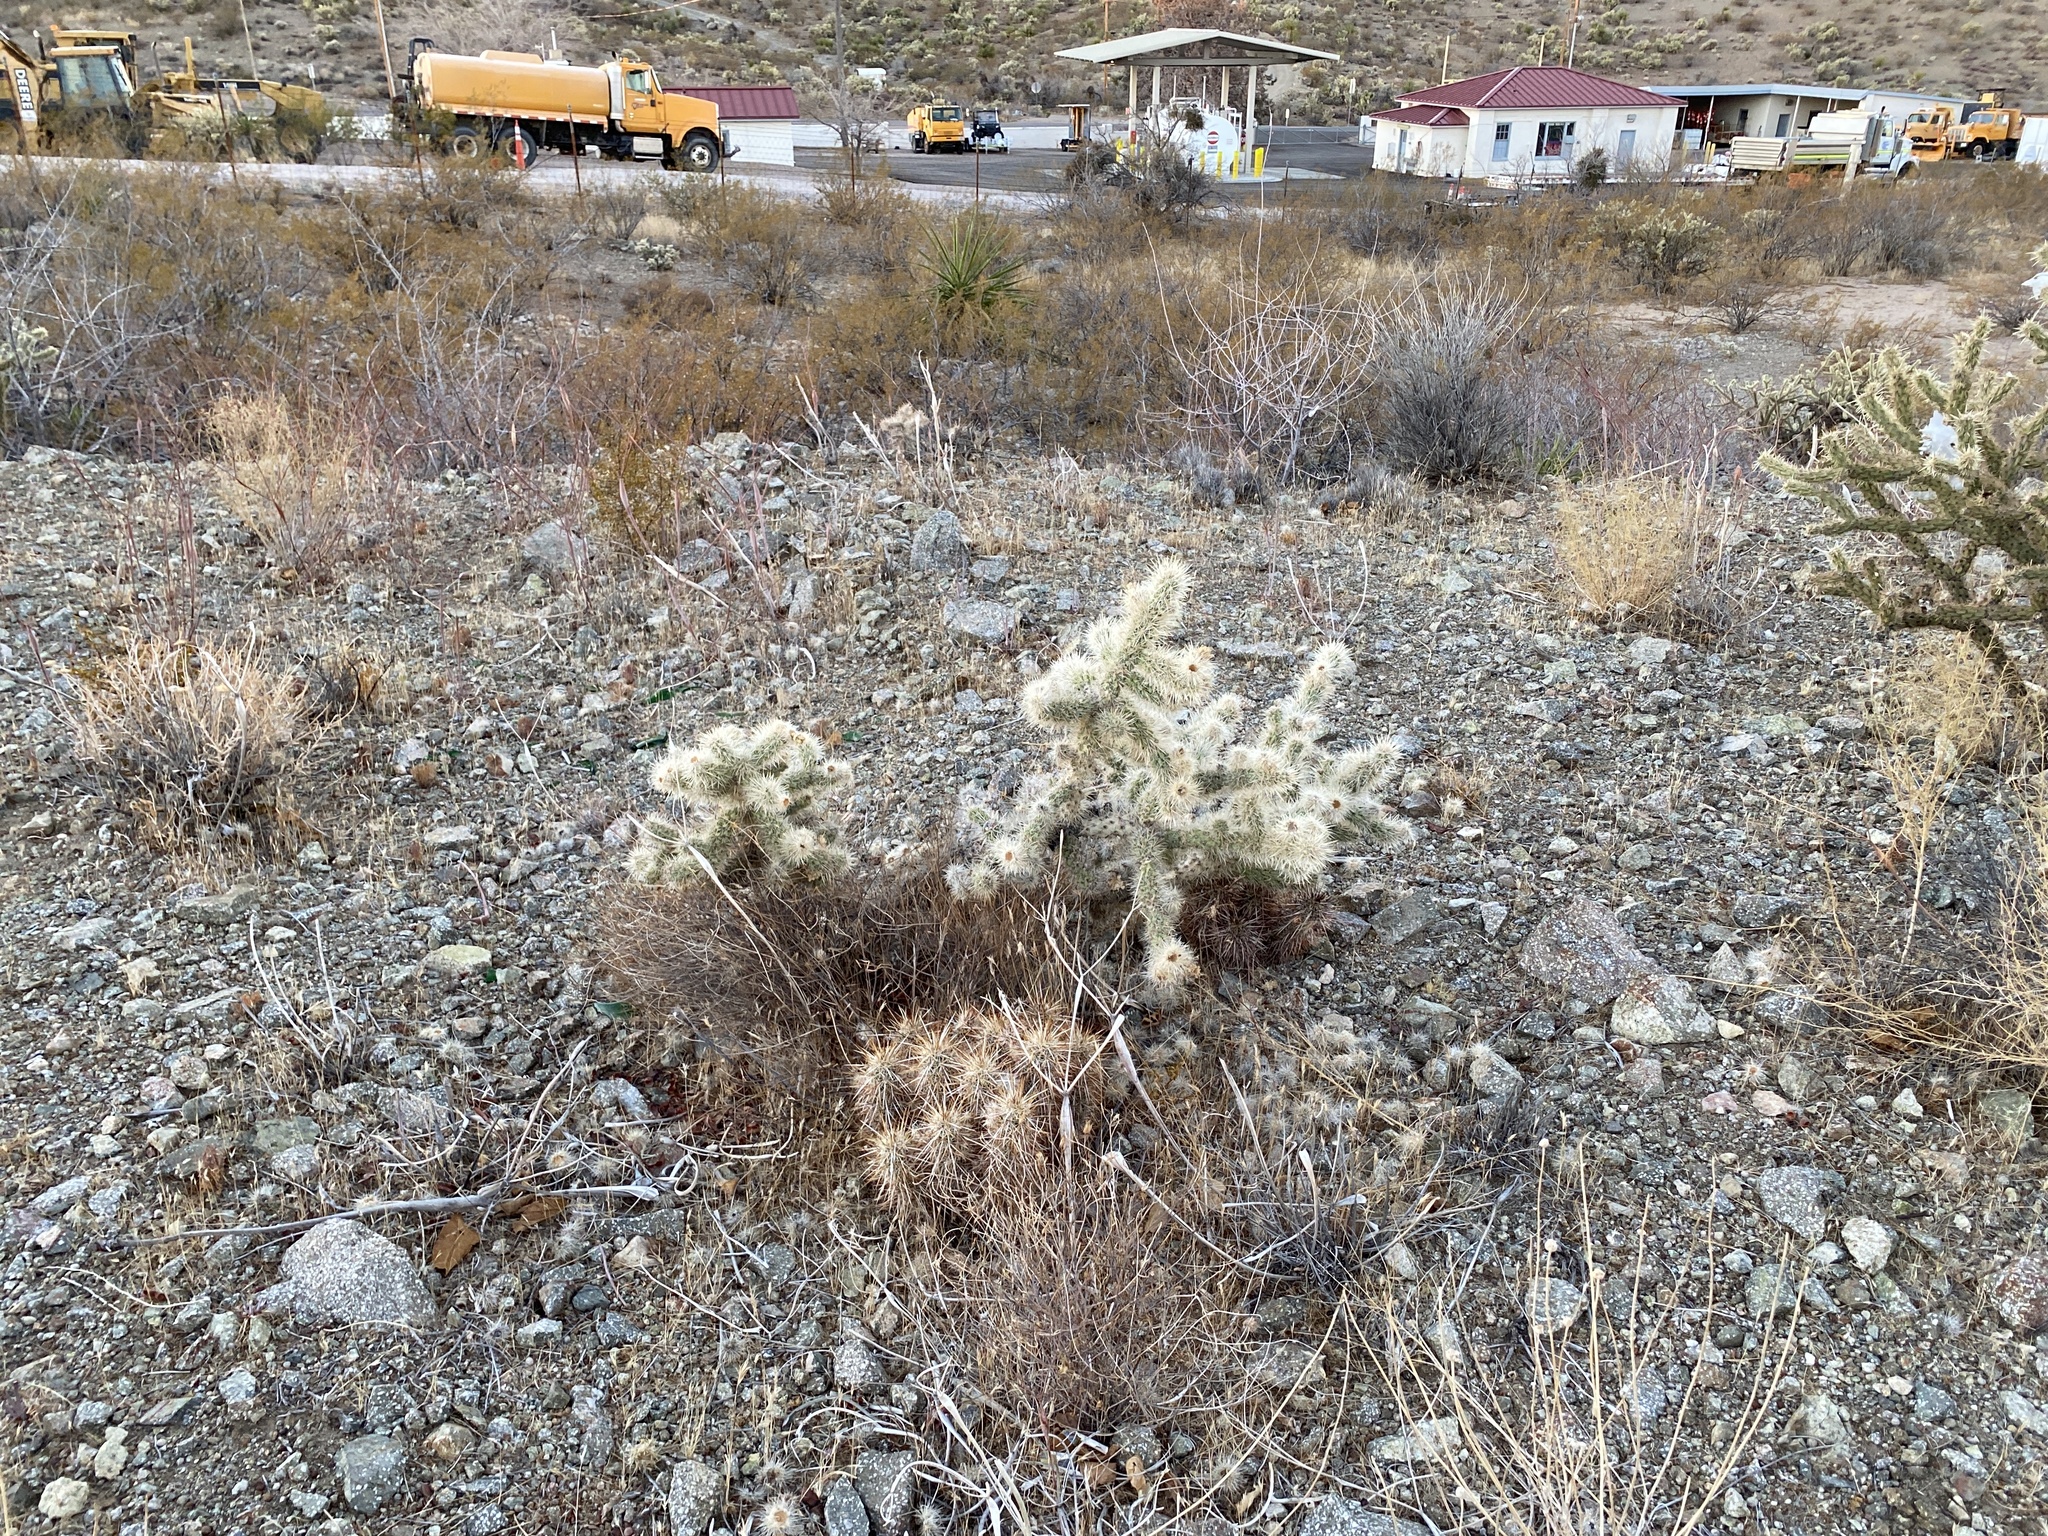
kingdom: Plantae
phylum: Tracheophyta
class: Magnoliopsida
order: Caryophyllales
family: Cactaceae
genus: Echinocereus
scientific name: Echinocereus engelmannii
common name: Engelmann's hedgehog cactus
